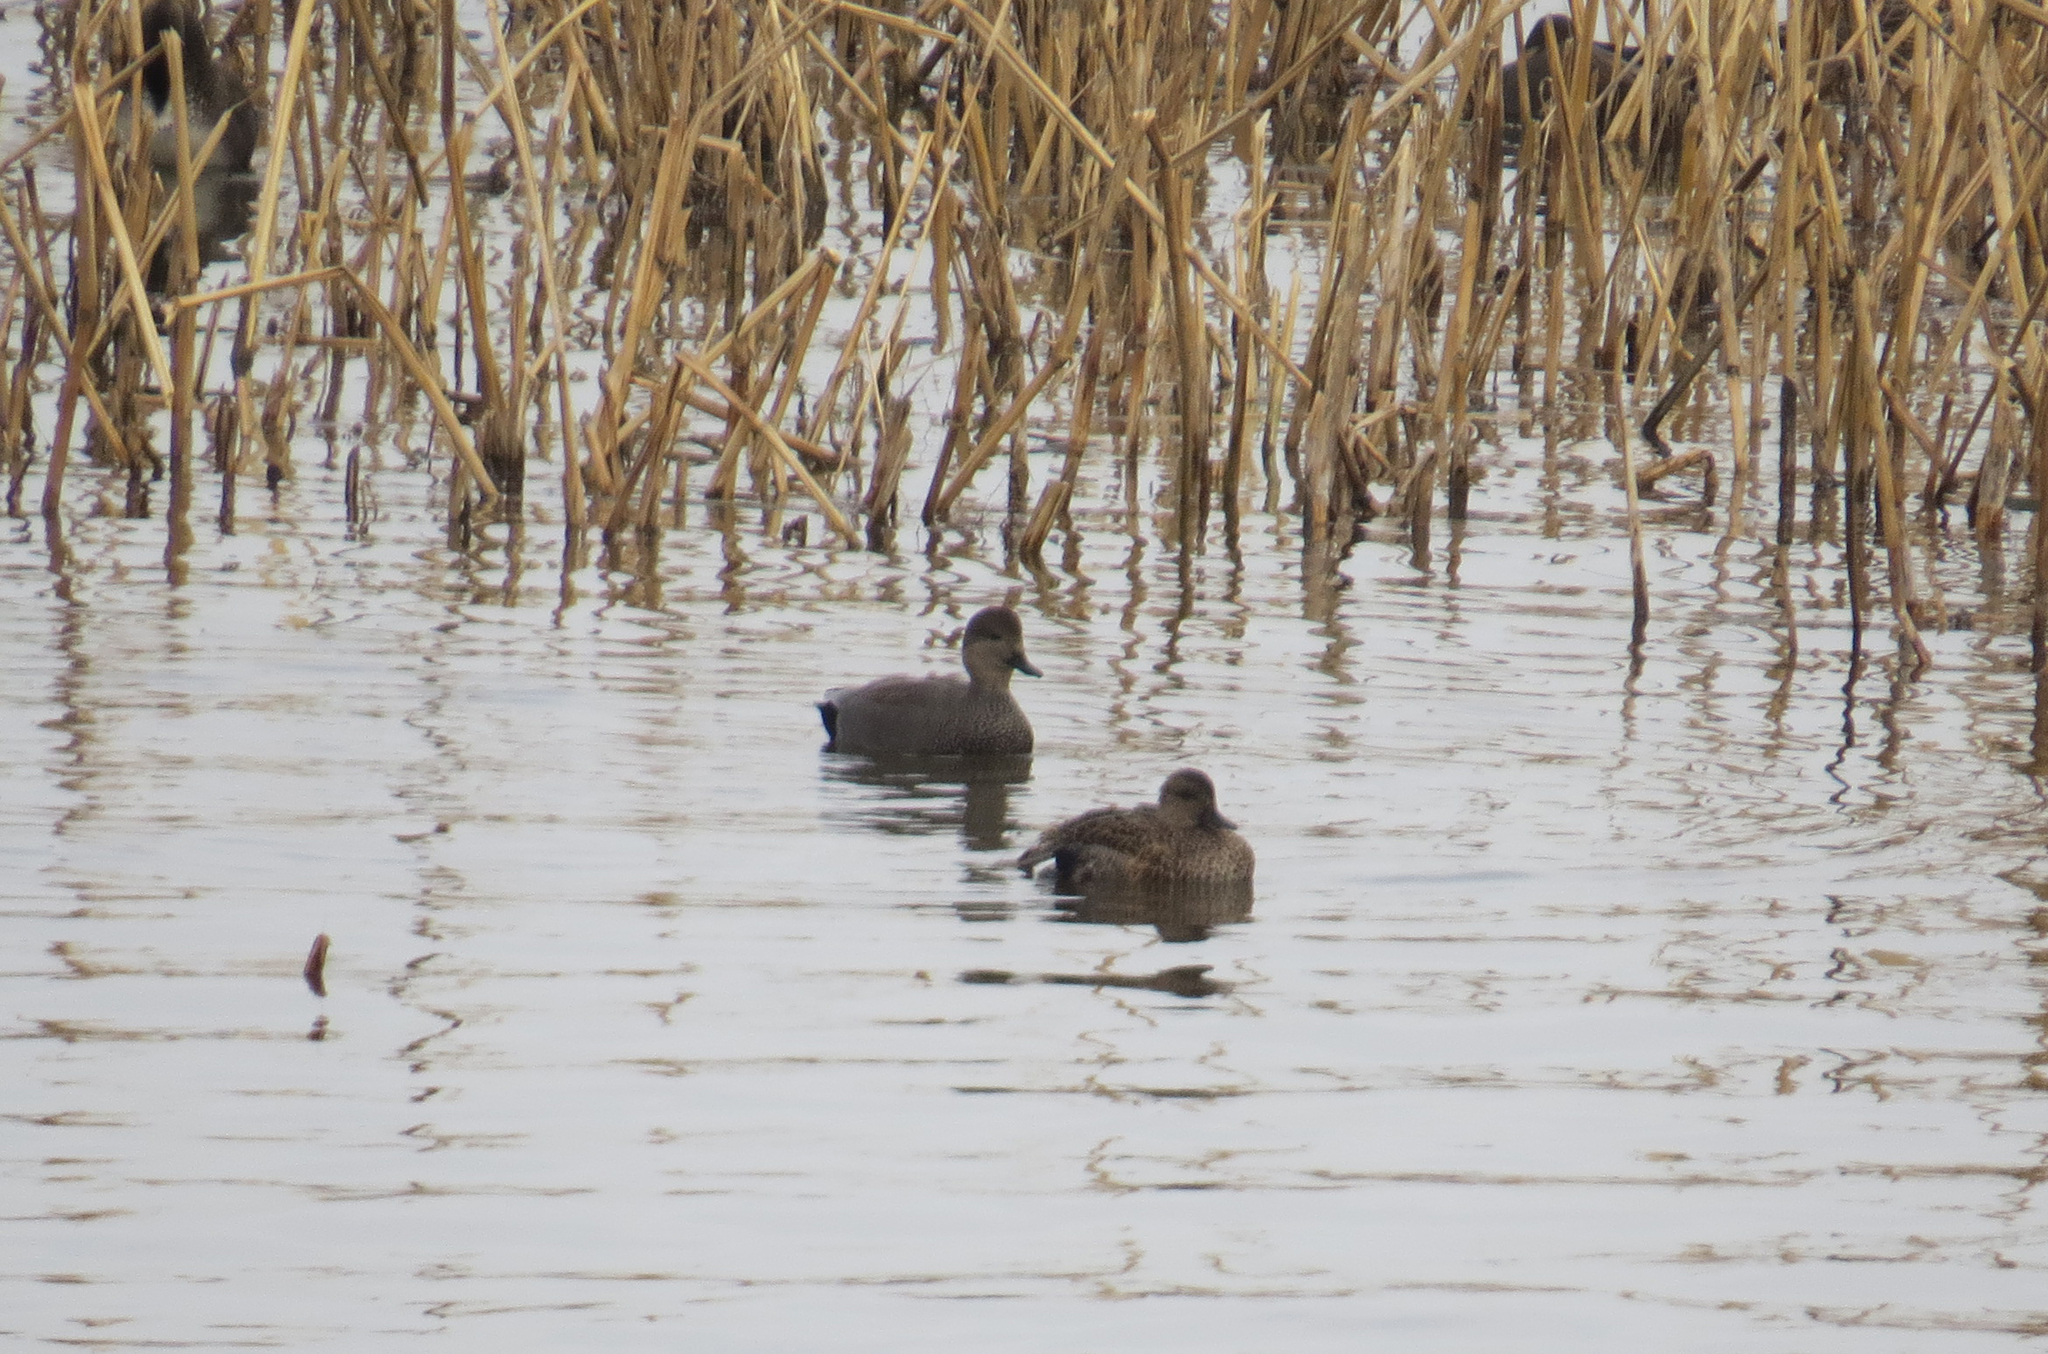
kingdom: Animalia
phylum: Chordata
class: Aves
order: Anseriformes
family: Anatidae
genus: Mareca
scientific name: Mareca strepera
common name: Gadwall
